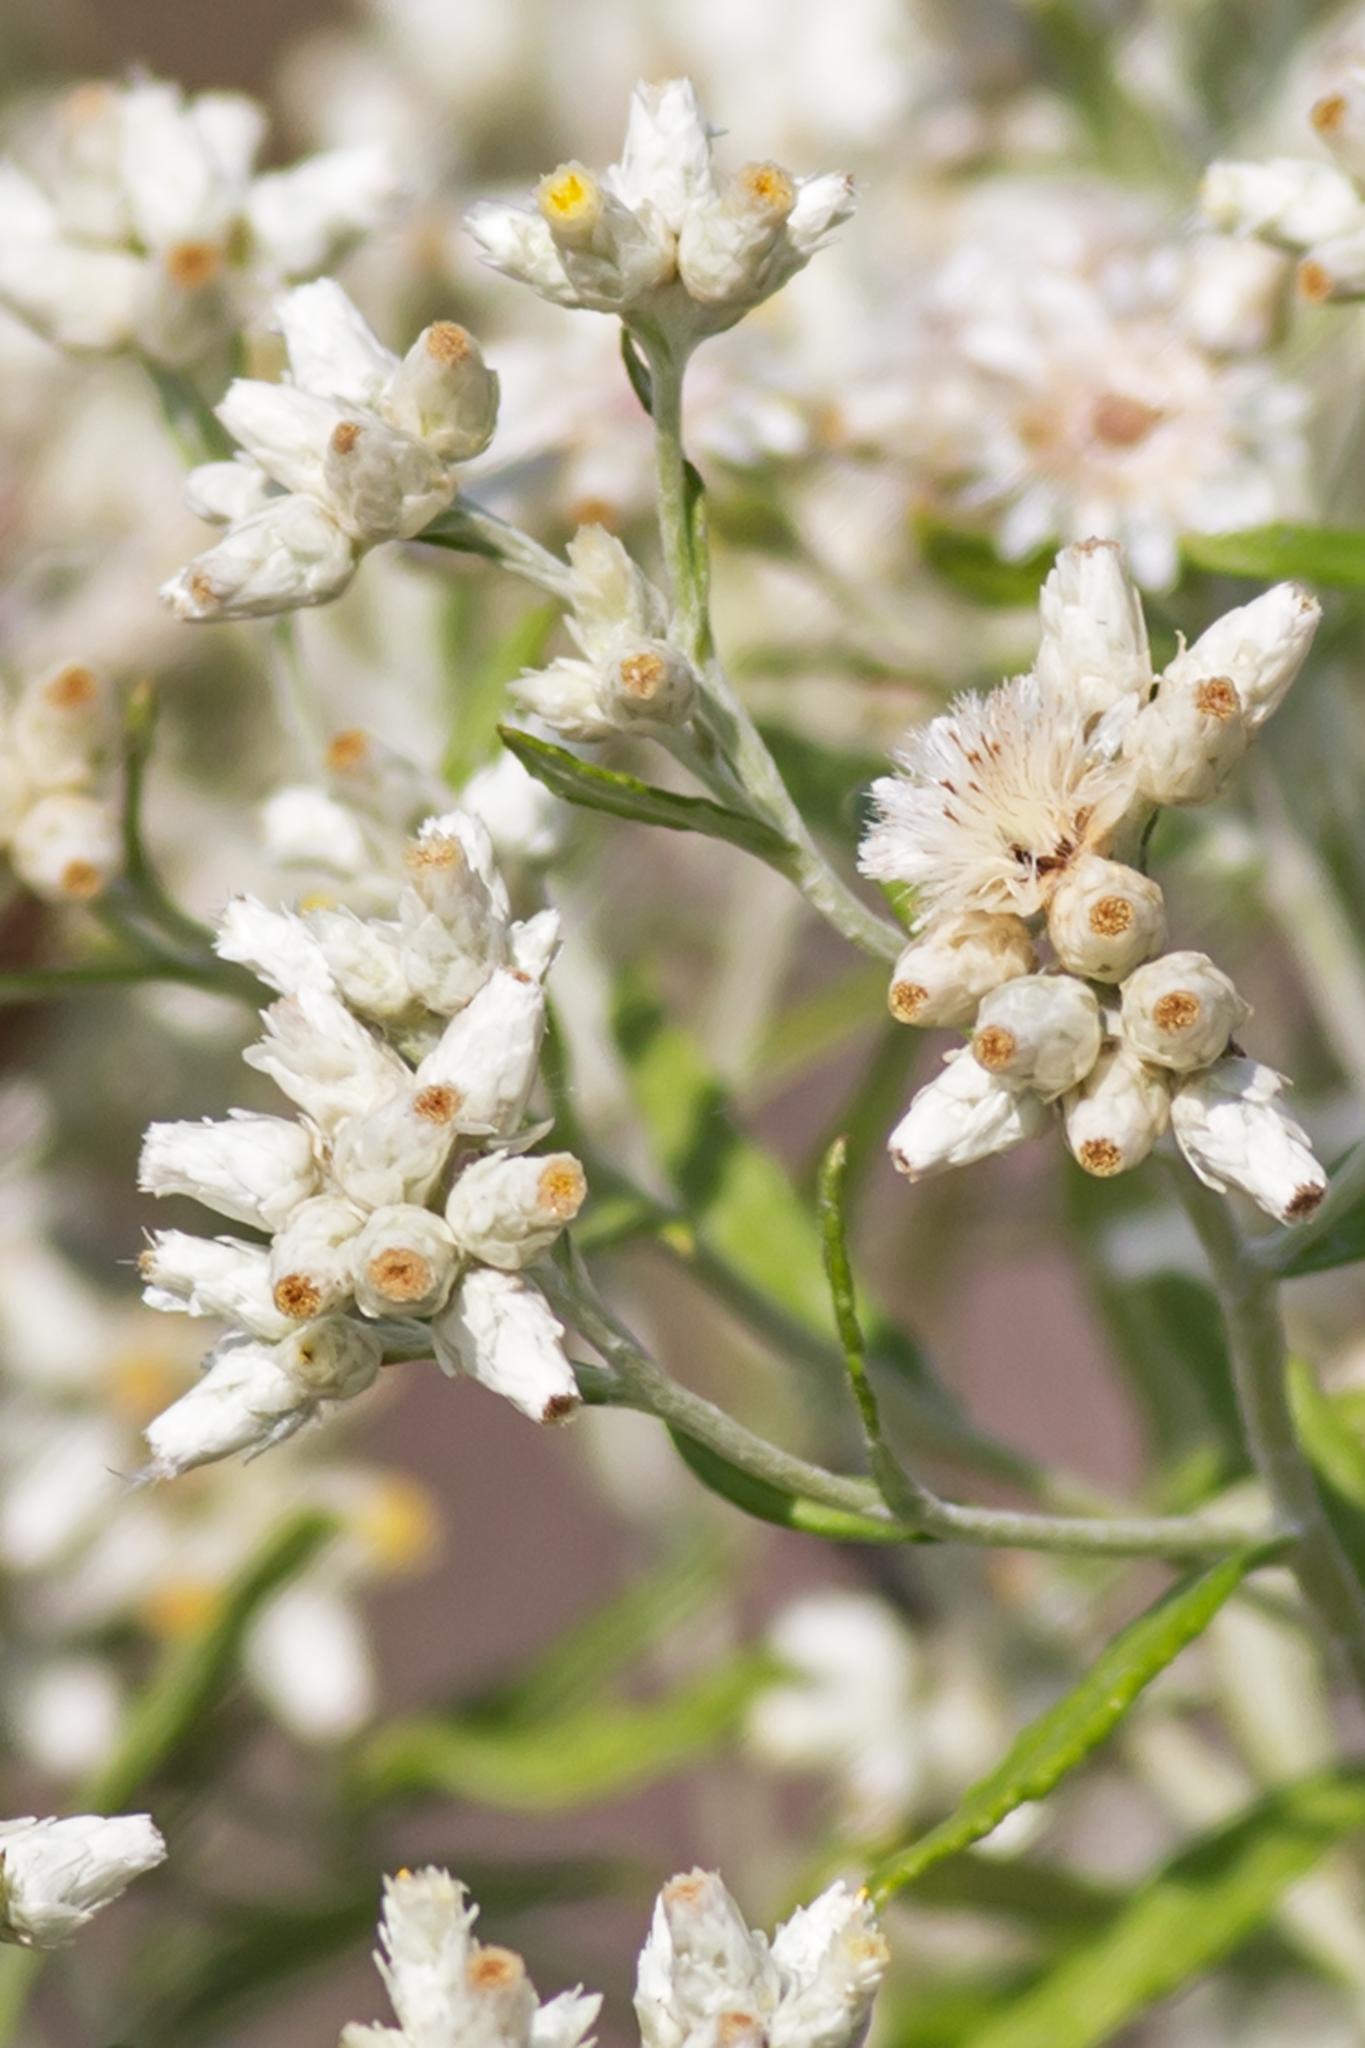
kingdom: Plantae
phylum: Tracheophyta
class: Magnoliopsida
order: Asterales
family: Asteraceae
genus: Pseudognaphalium
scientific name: Pseudognaphalium obtusifolium
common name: Eastern rabbit-tobacco
